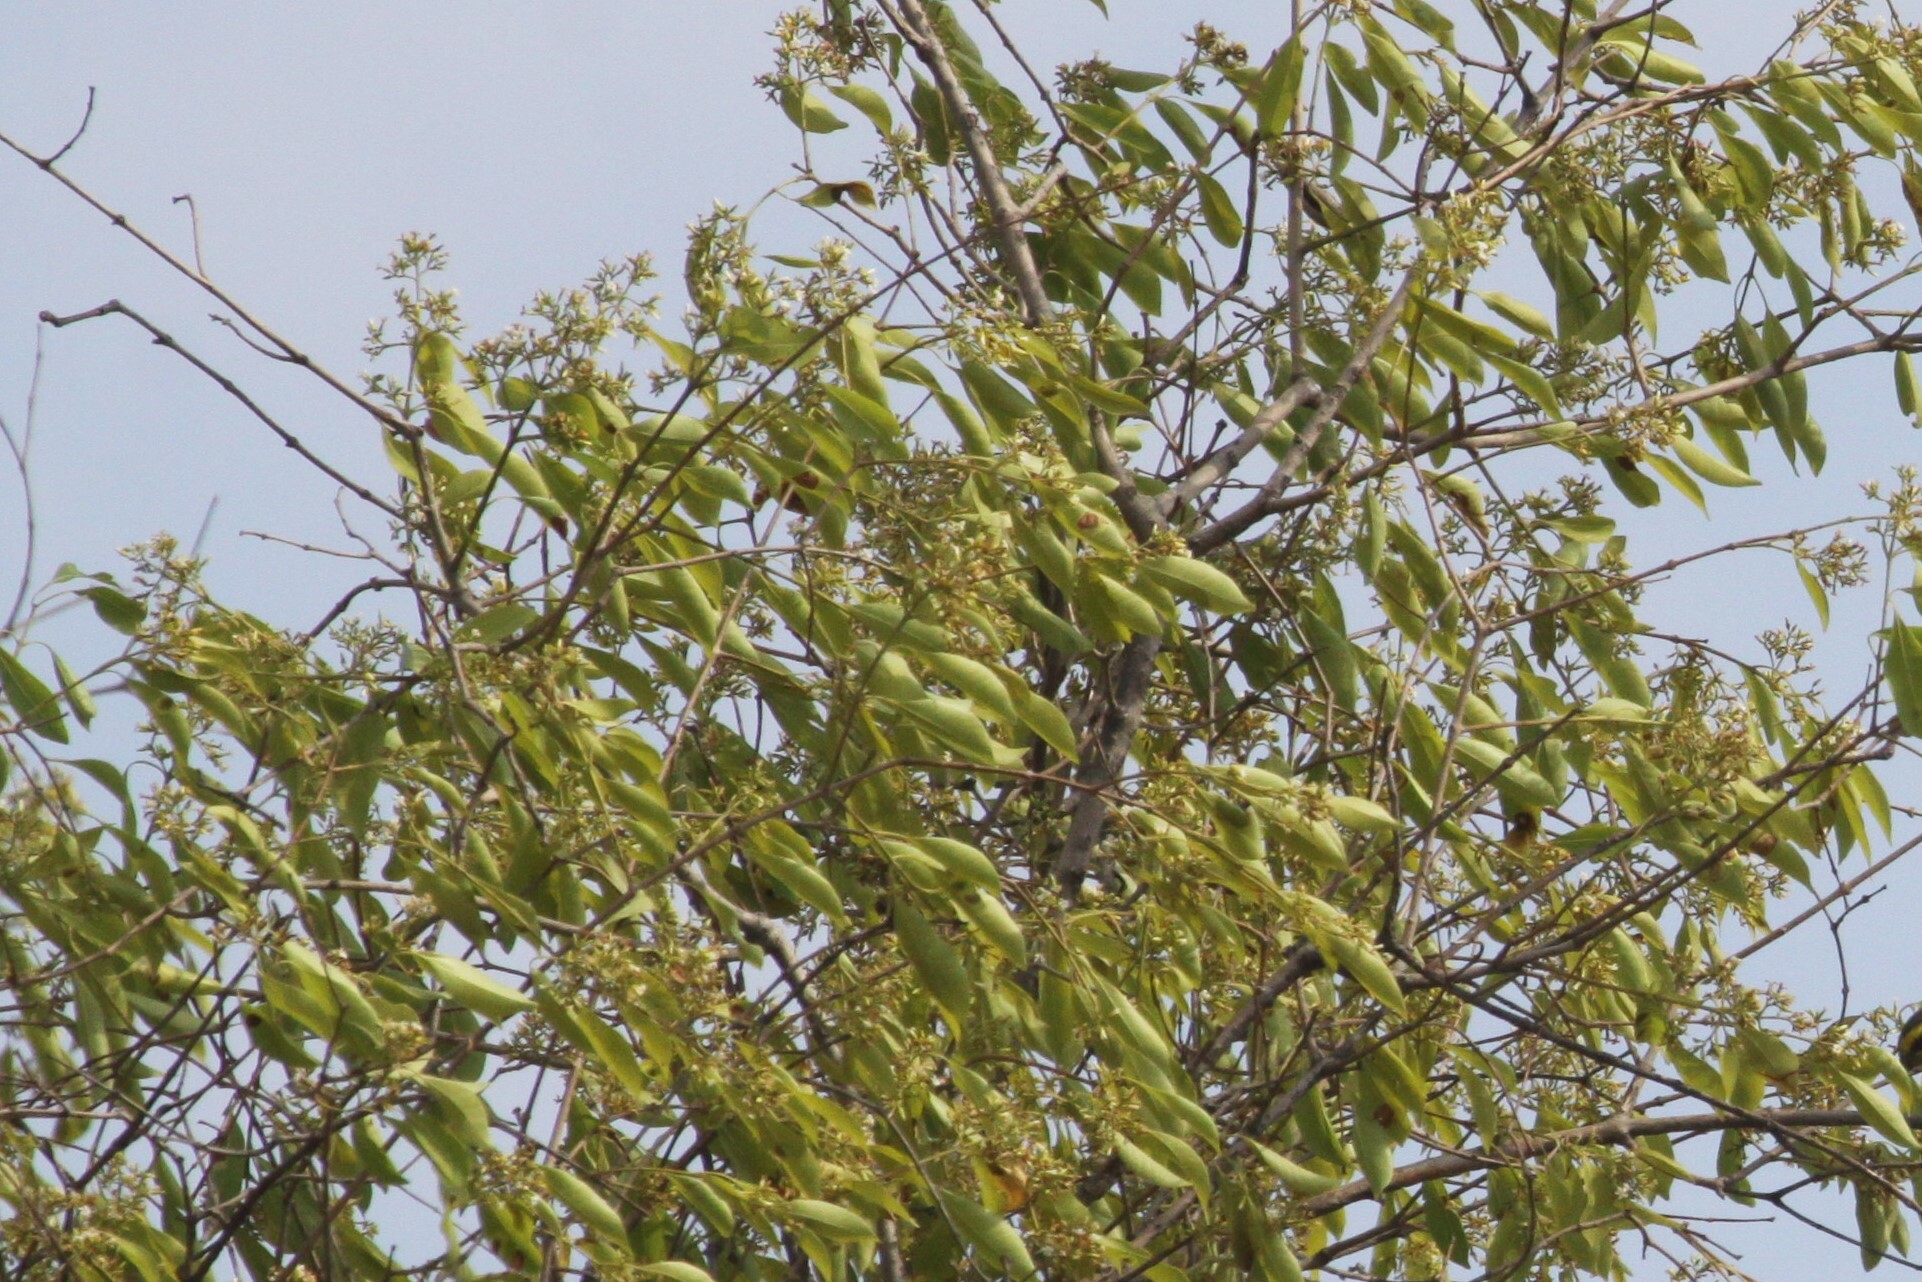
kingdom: Plantae
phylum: Tracheophyta
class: Magnoliopsida
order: Gentianales
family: Apocynaceae
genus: Diplorhynchus
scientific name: Diplorhynchus condylocarpon
